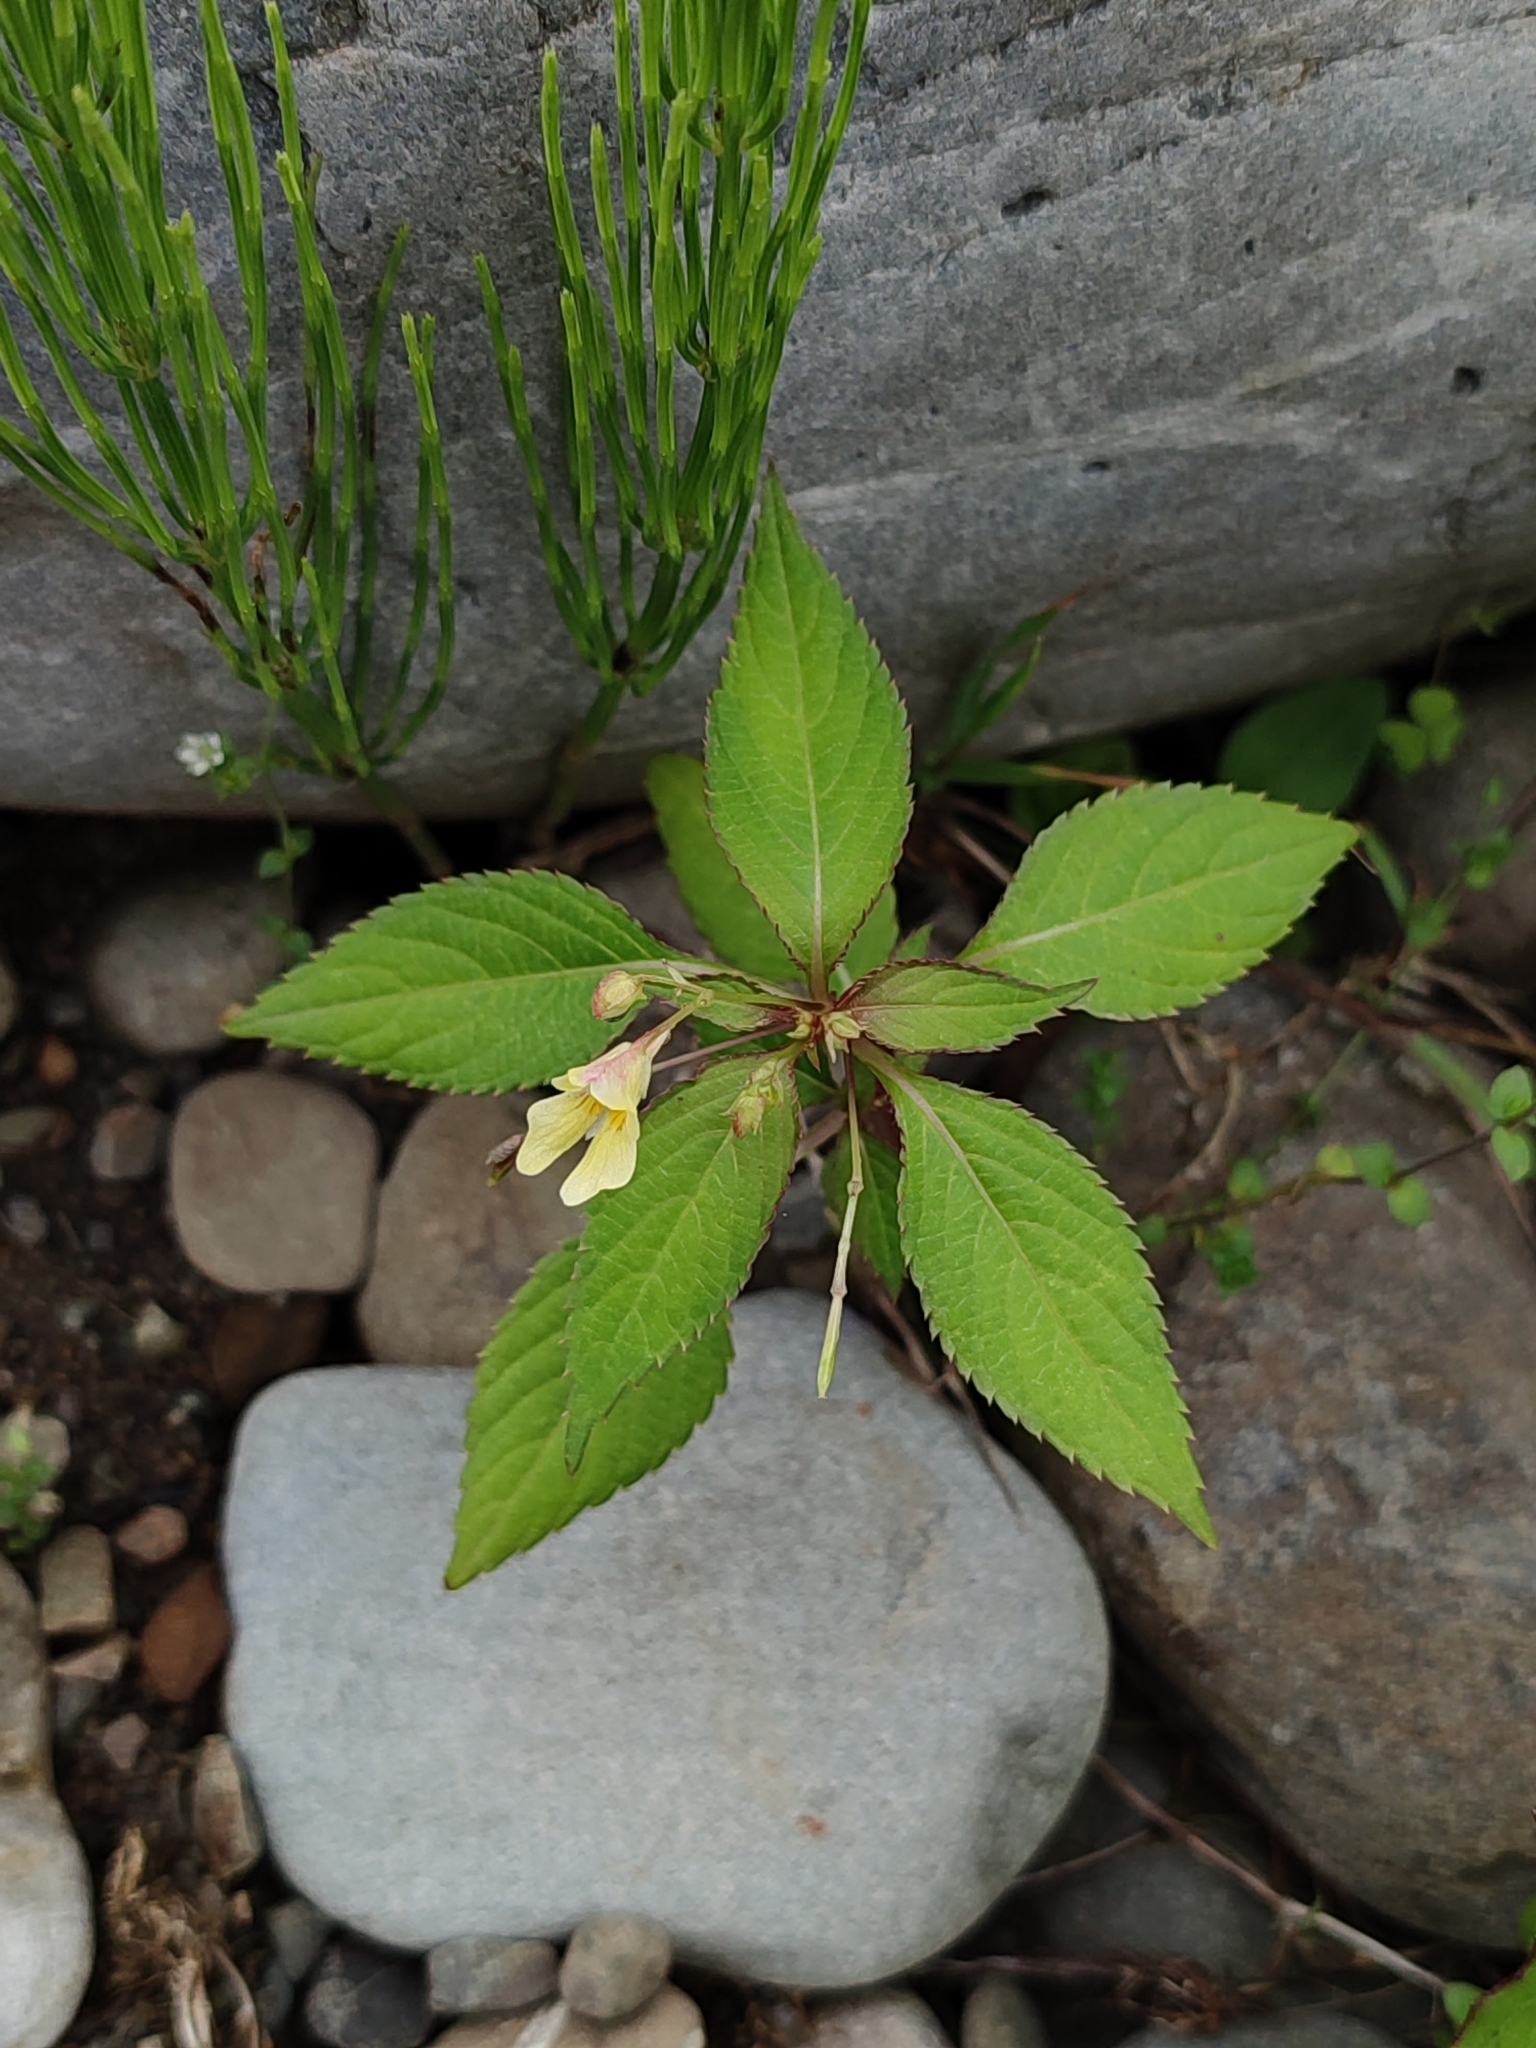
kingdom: Plantae
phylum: Tracheophyta
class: Magnoliopsida
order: Ericales
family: Balsaminaceae
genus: Impatiens
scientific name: Impatiens parviflora
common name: Small balsam
